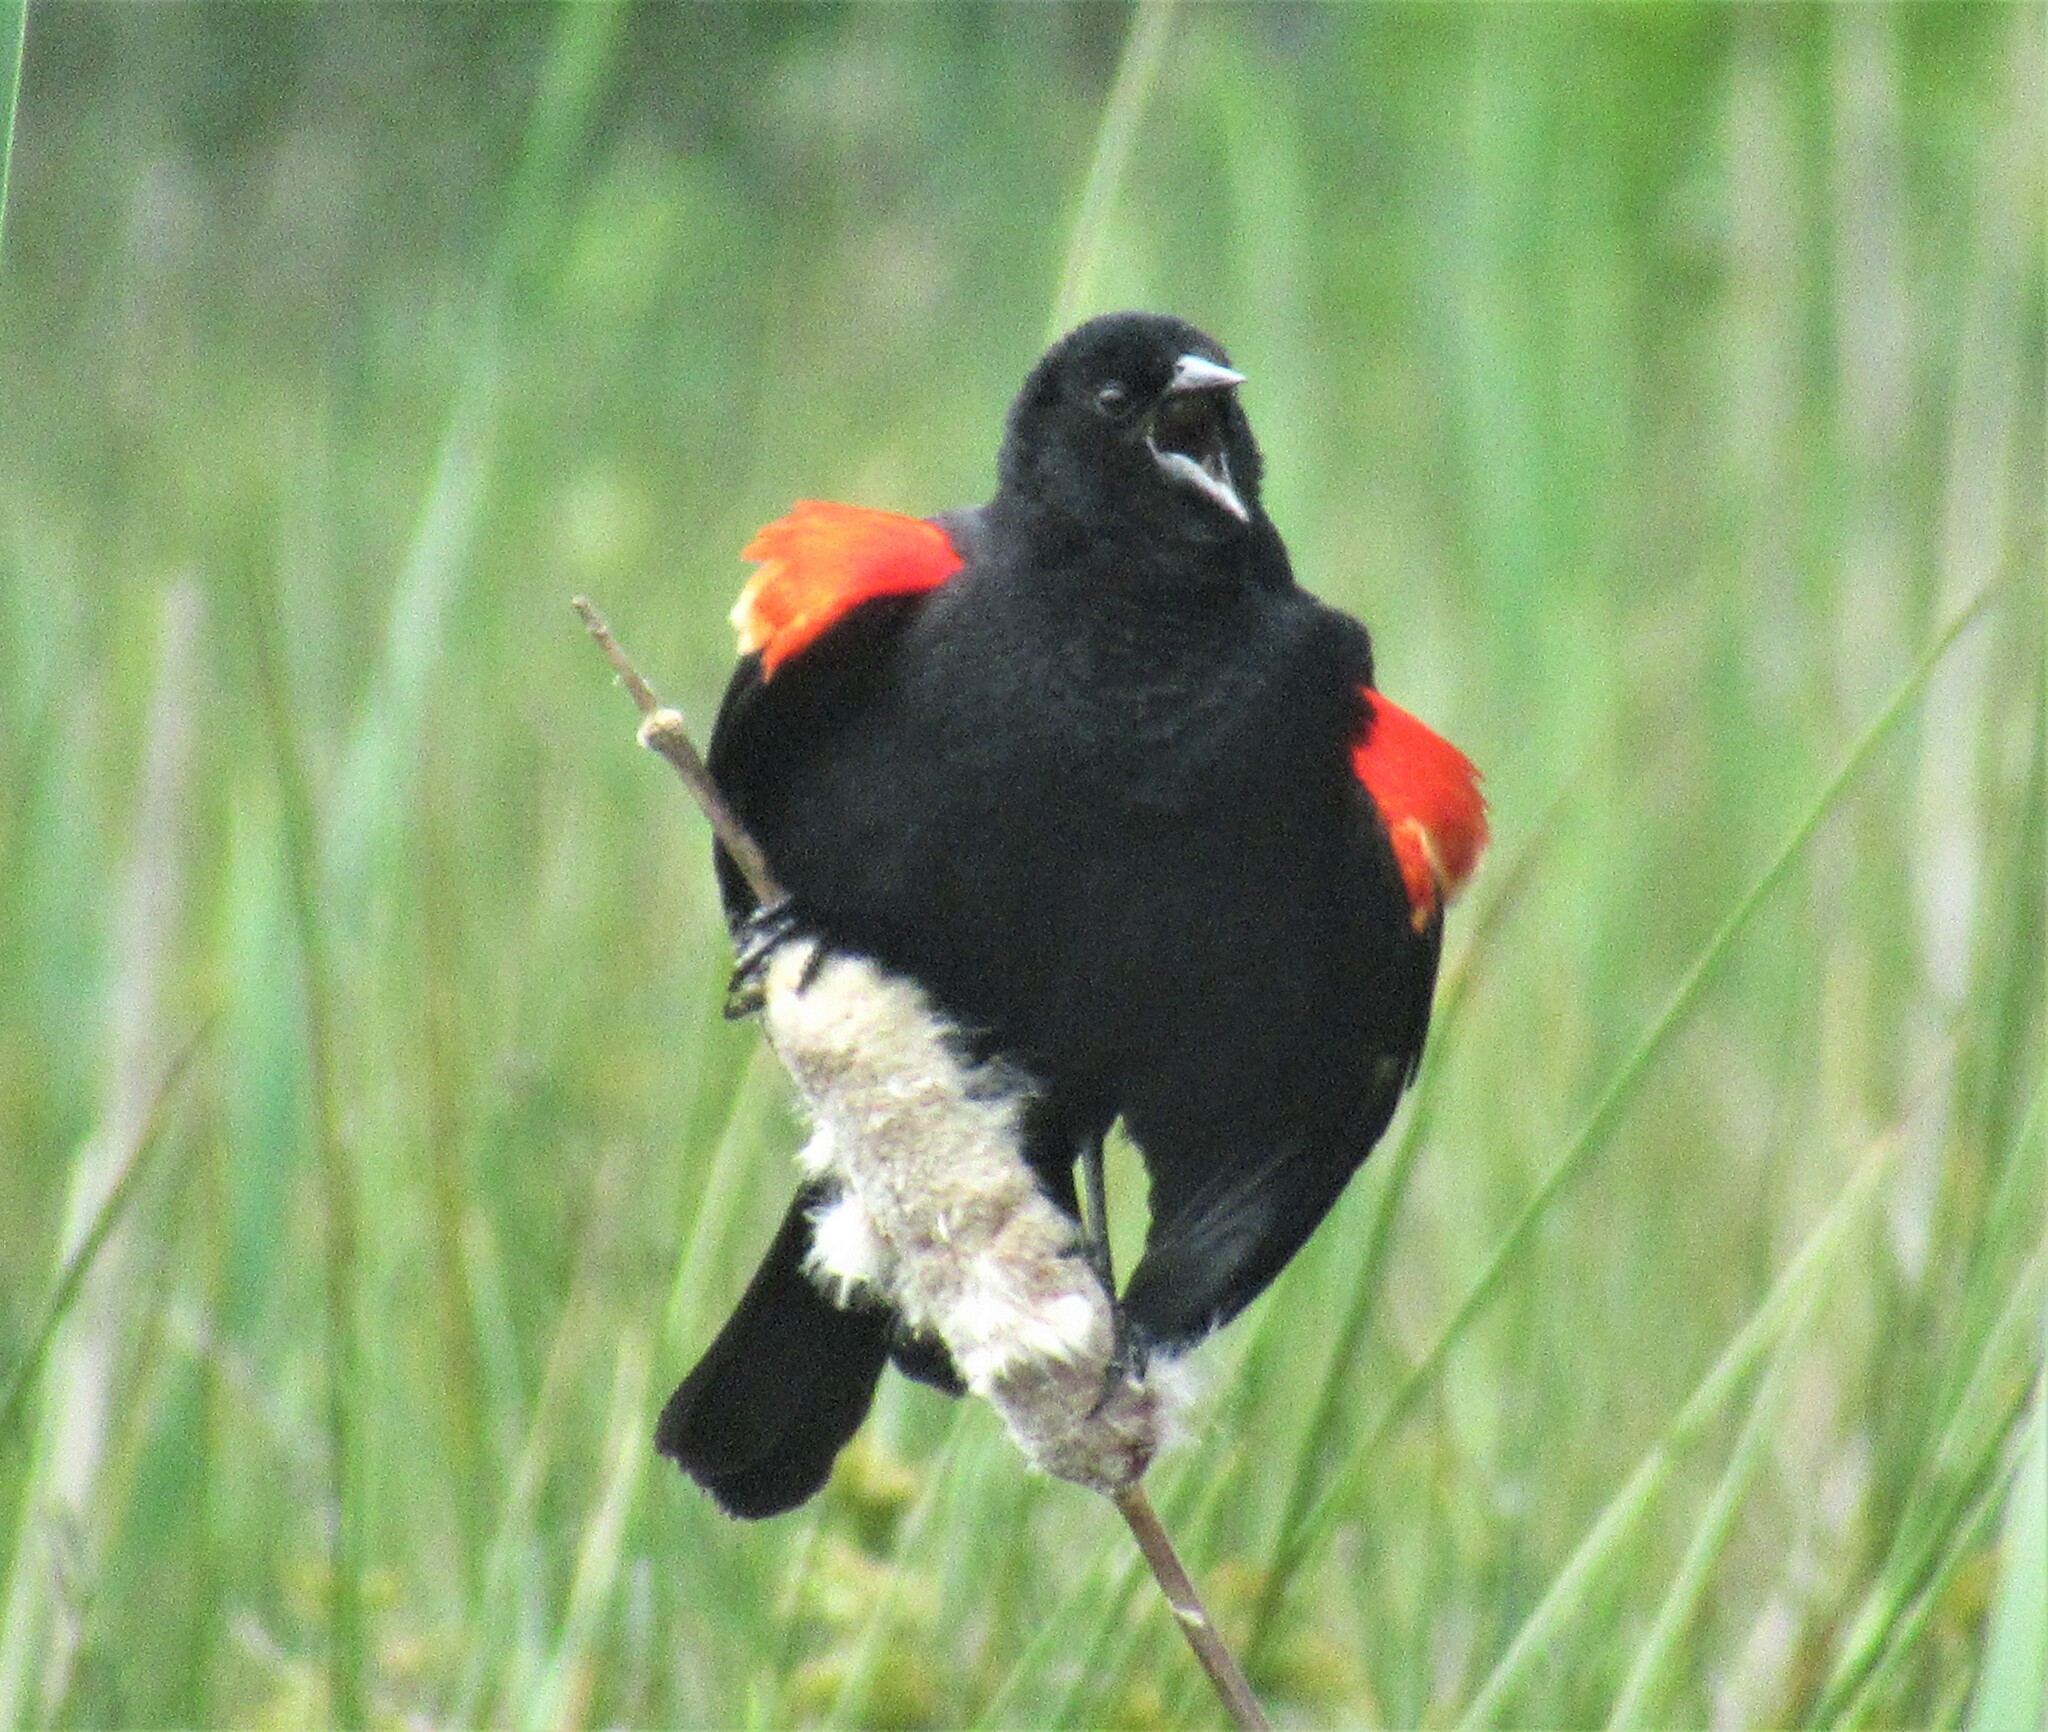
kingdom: Animalia
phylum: Chordata
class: Aves
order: Passeriformes
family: Icteridae
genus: Agelaius
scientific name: Agelaius phoeniceus
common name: Red-winged blackbird
